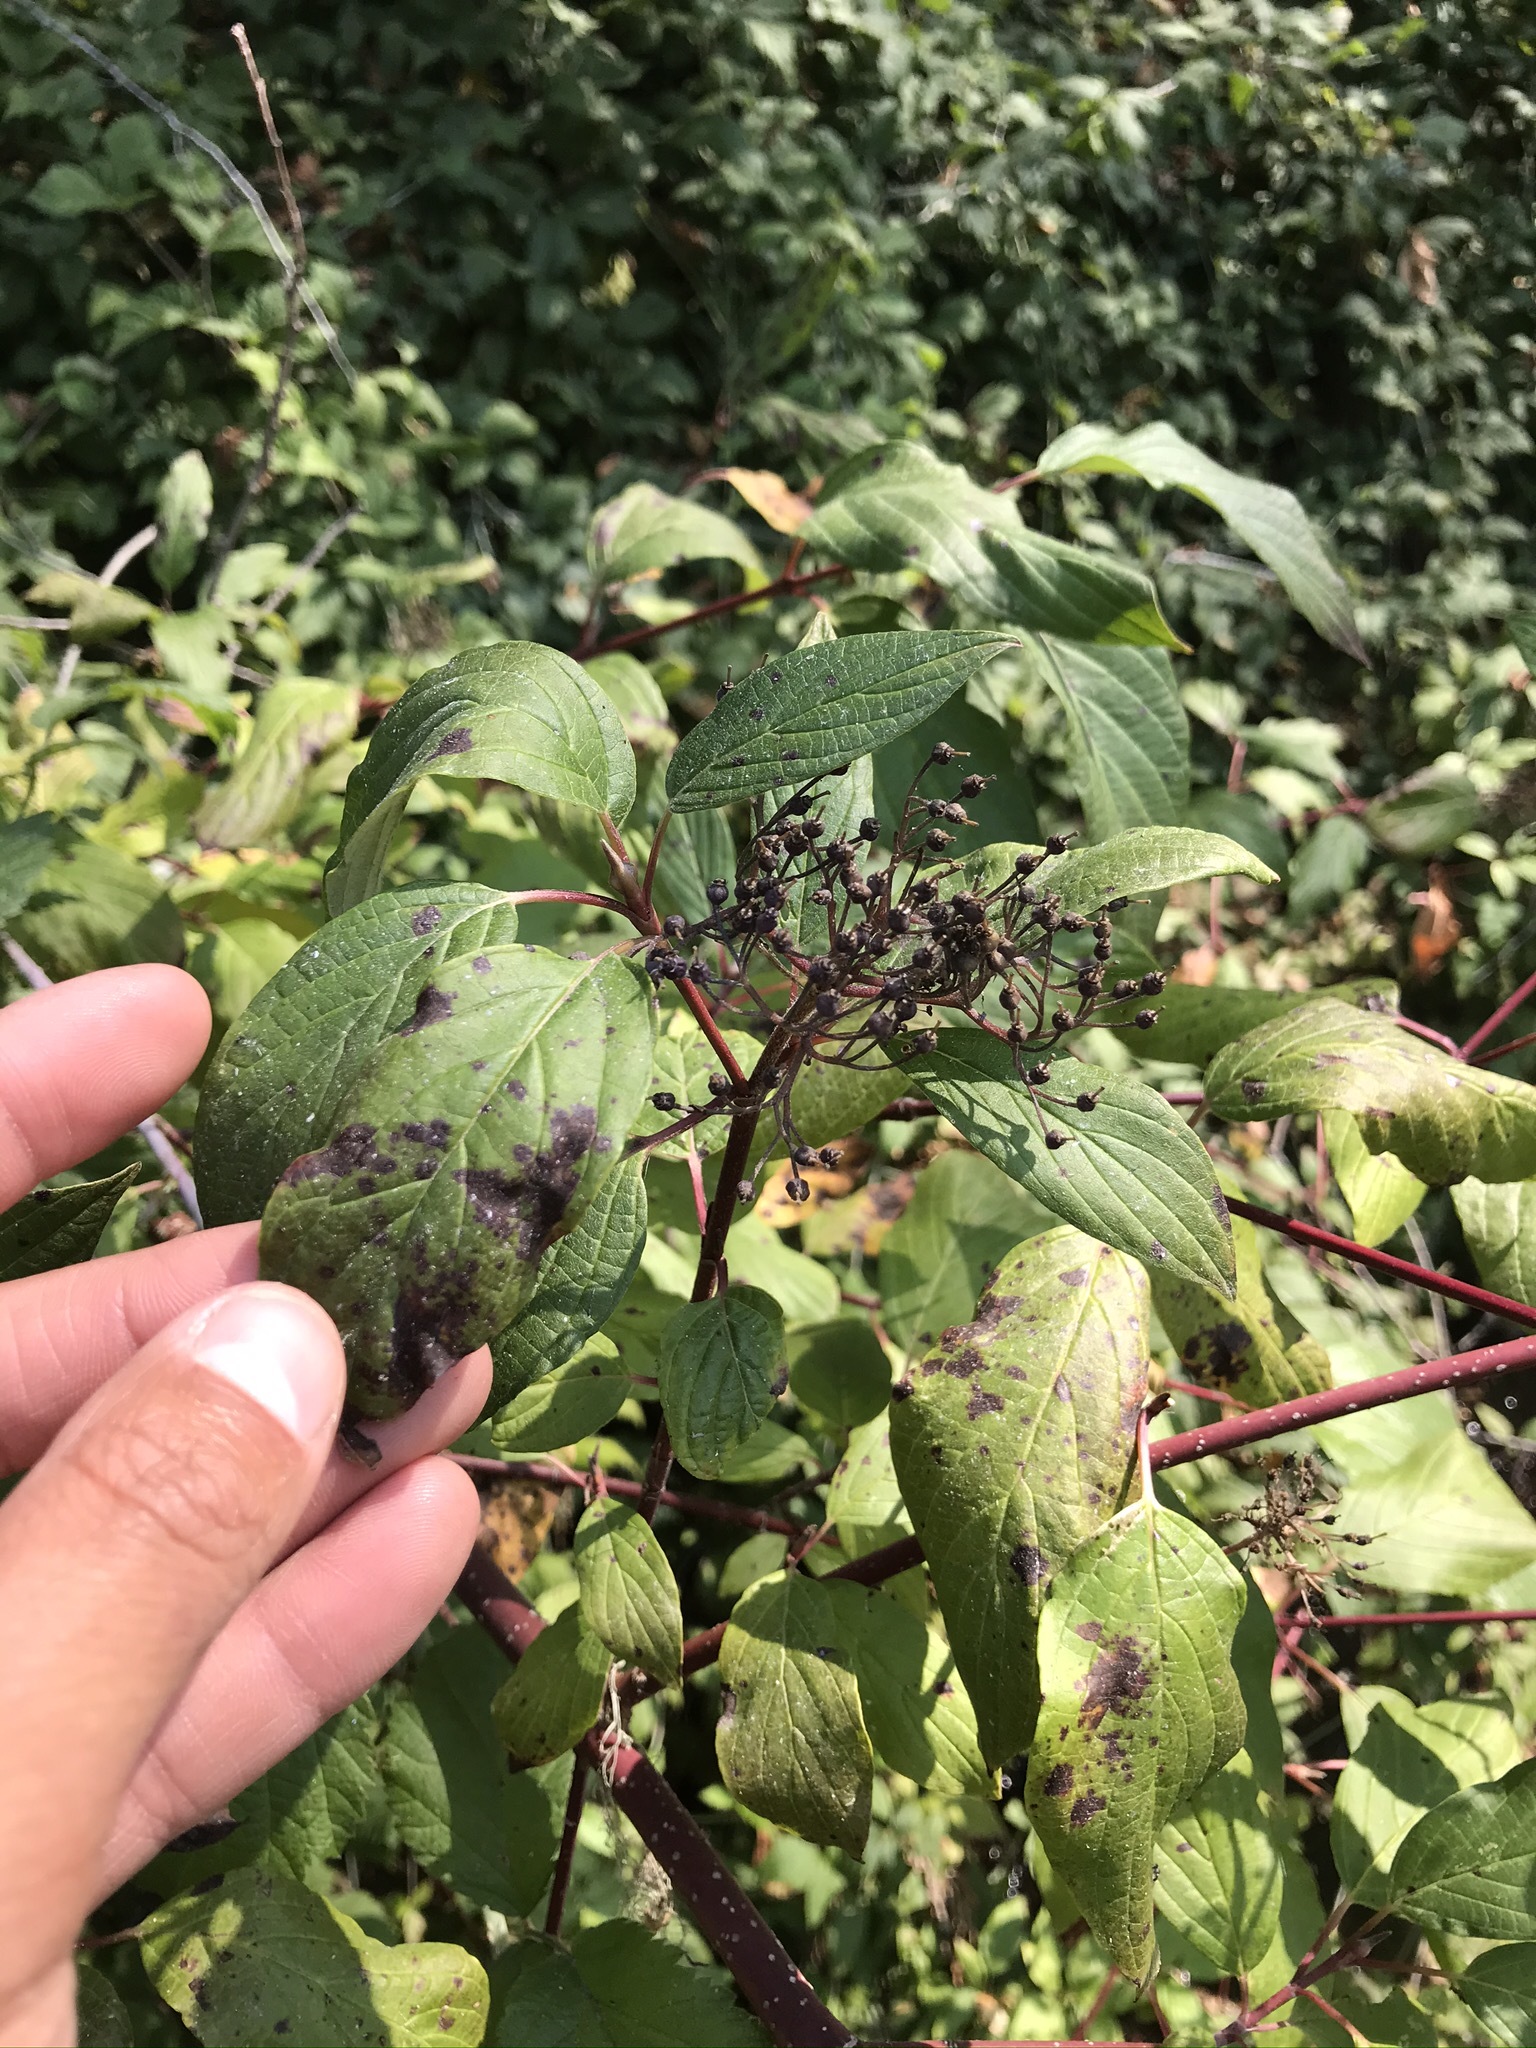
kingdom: Plantae
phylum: Tracheophyta
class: Magnoliopsida
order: Cornales
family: Cornaceae
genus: Cornus
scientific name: Cornus sericea
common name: Red-osier dogwood
